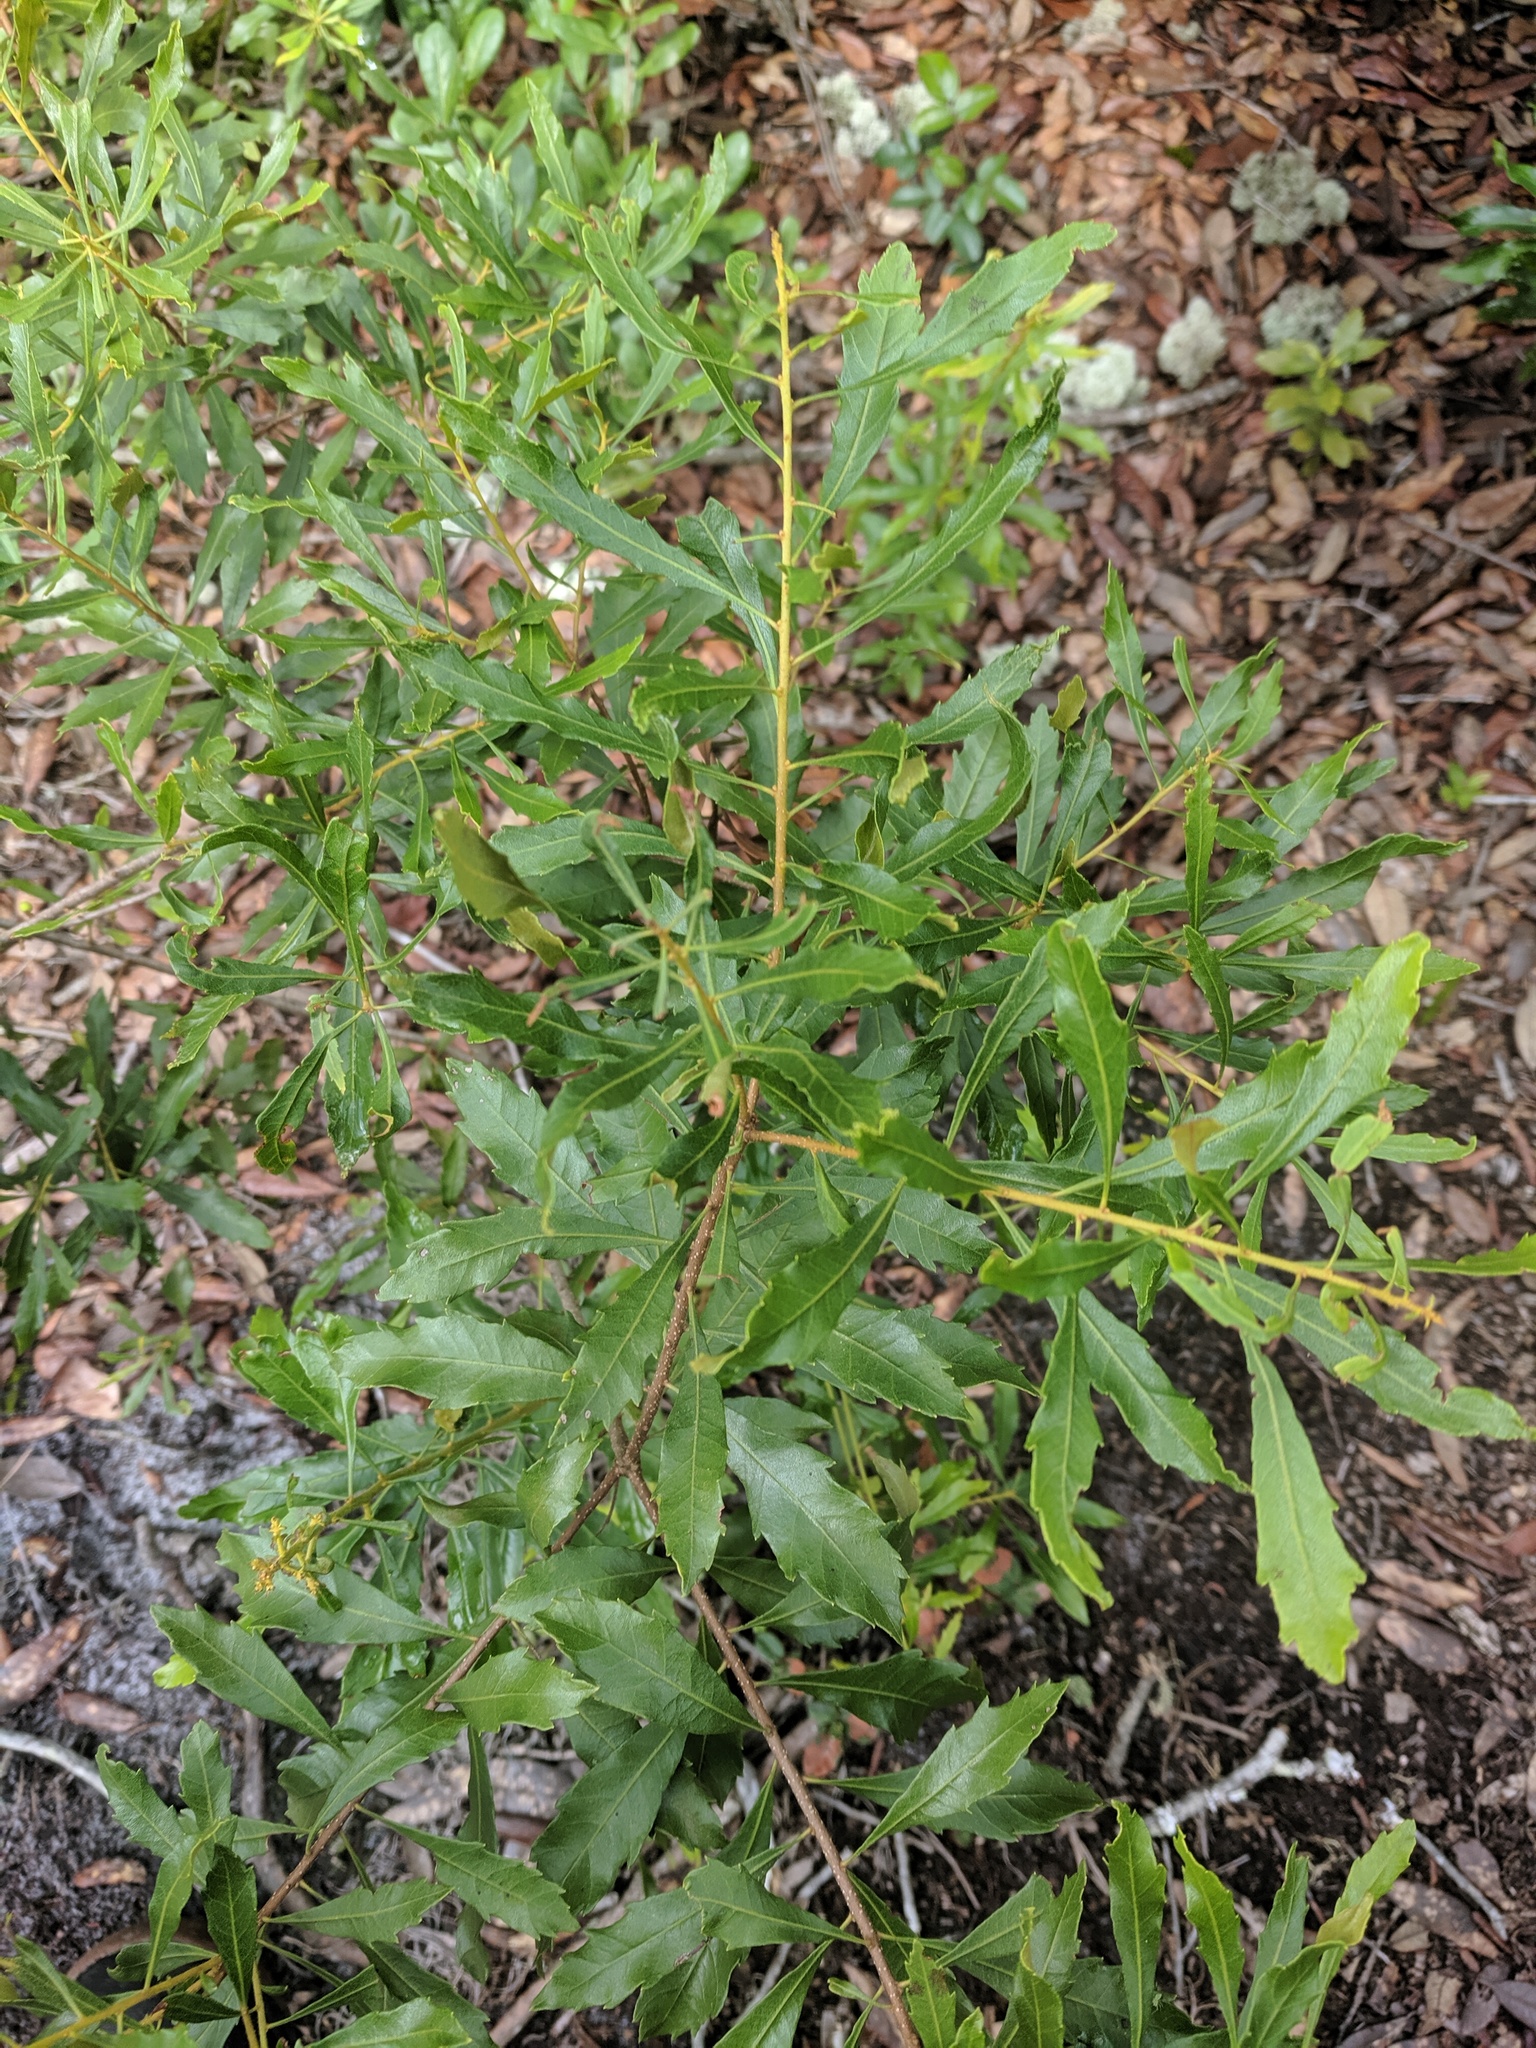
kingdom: Plantae
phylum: Tracheophyta
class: Magnoliopsida
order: Fagales
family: Myricaceae
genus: Morella
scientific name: Morella cerifera
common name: Wax myrtle
